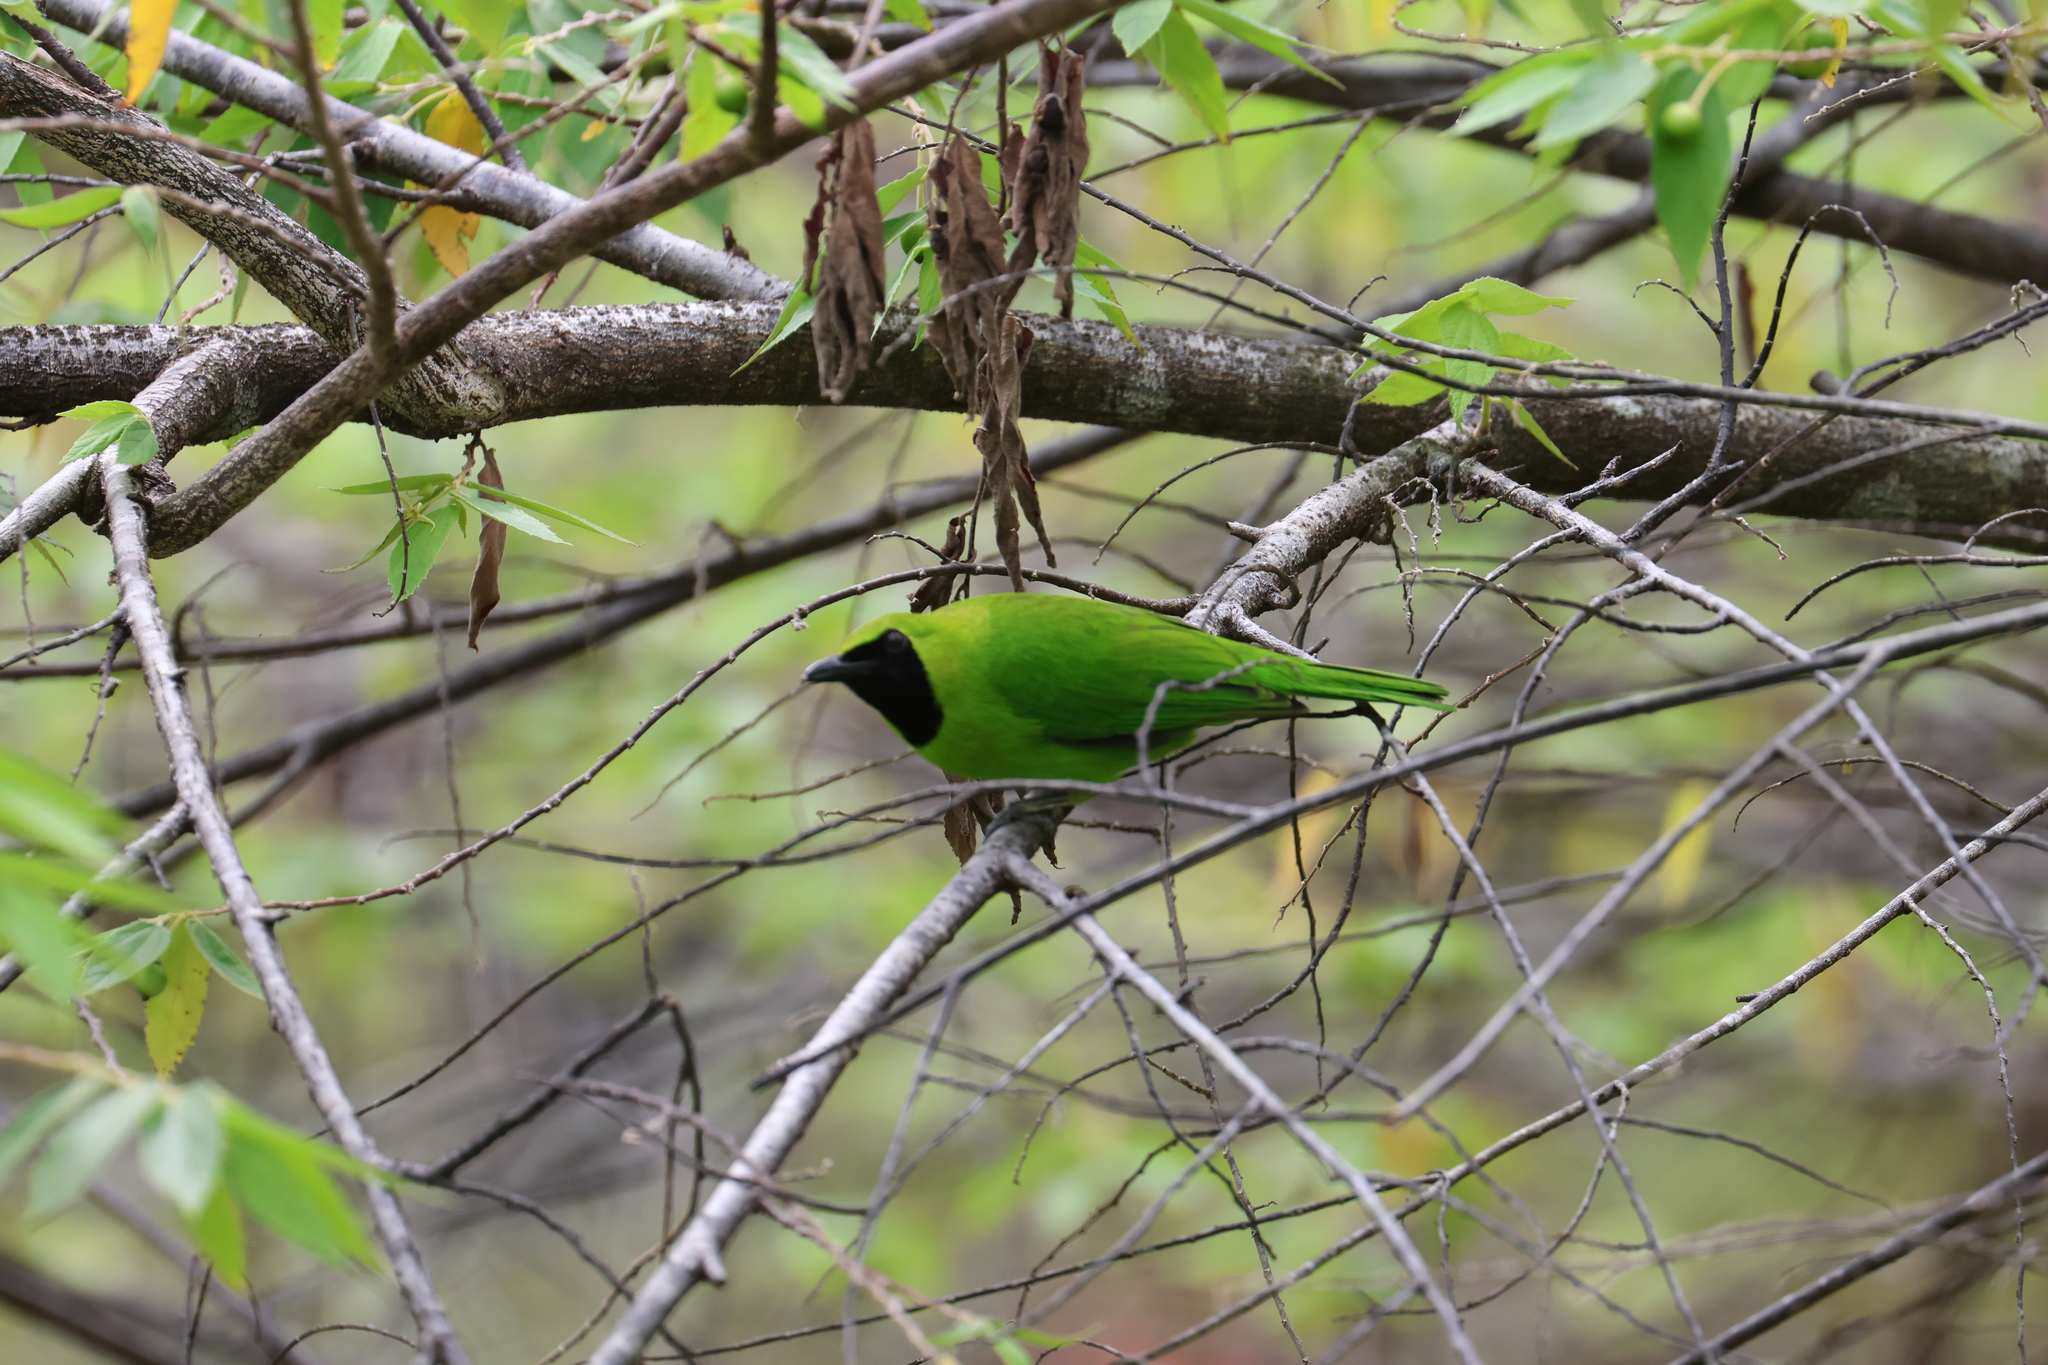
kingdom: Animalia
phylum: Chordata
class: Aves
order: Passeriformes
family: Chloropseidae
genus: Chloropsis
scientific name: Chloropsis sonnerati
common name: Greater green leafbird
